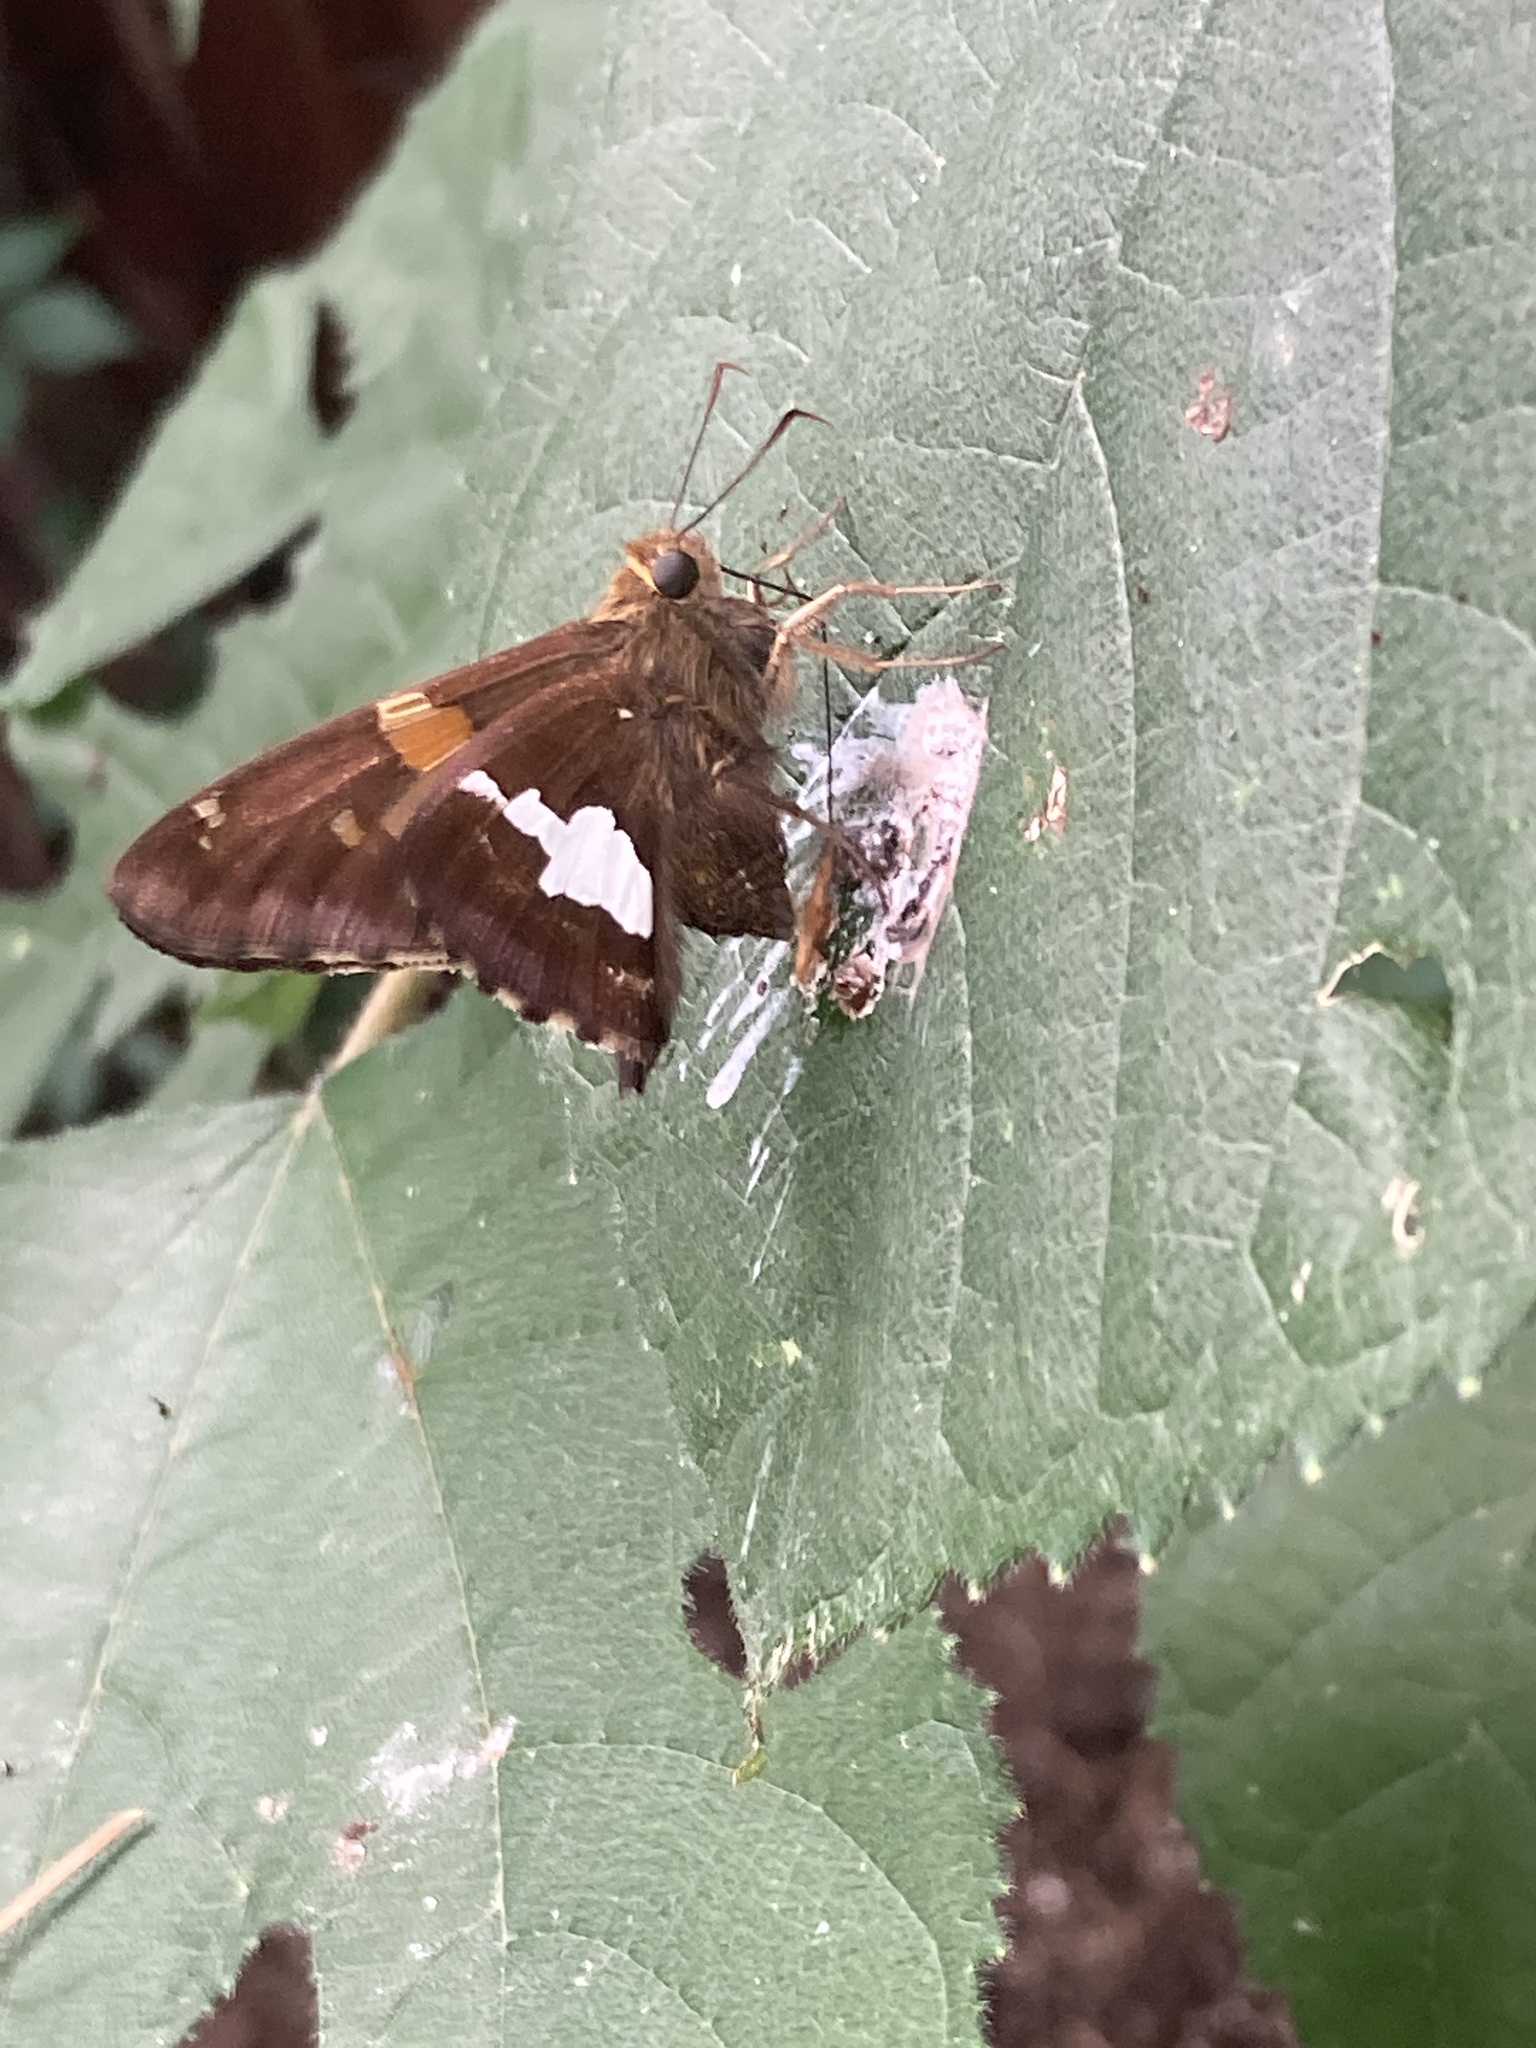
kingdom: Animalia
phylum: Arthropoda
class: Insecta
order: Lepidoptera
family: Hesperiidae
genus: Epargyreus
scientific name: Epargyreus clarus
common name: Silver-spotted skipper
